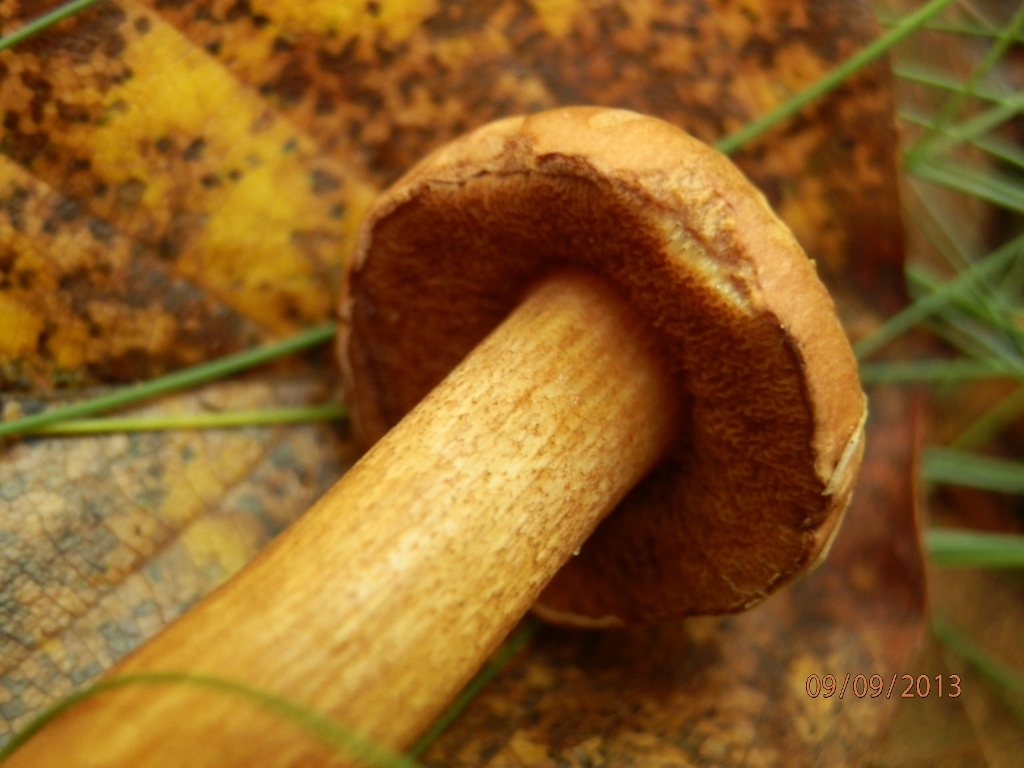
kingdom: Fungi
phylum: Basidiomycota
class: Agaricomycetes
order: Boletales
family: Boletaceae
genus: Chalciporus
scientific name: Chalciporus piperatus
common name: Peppery bolete
